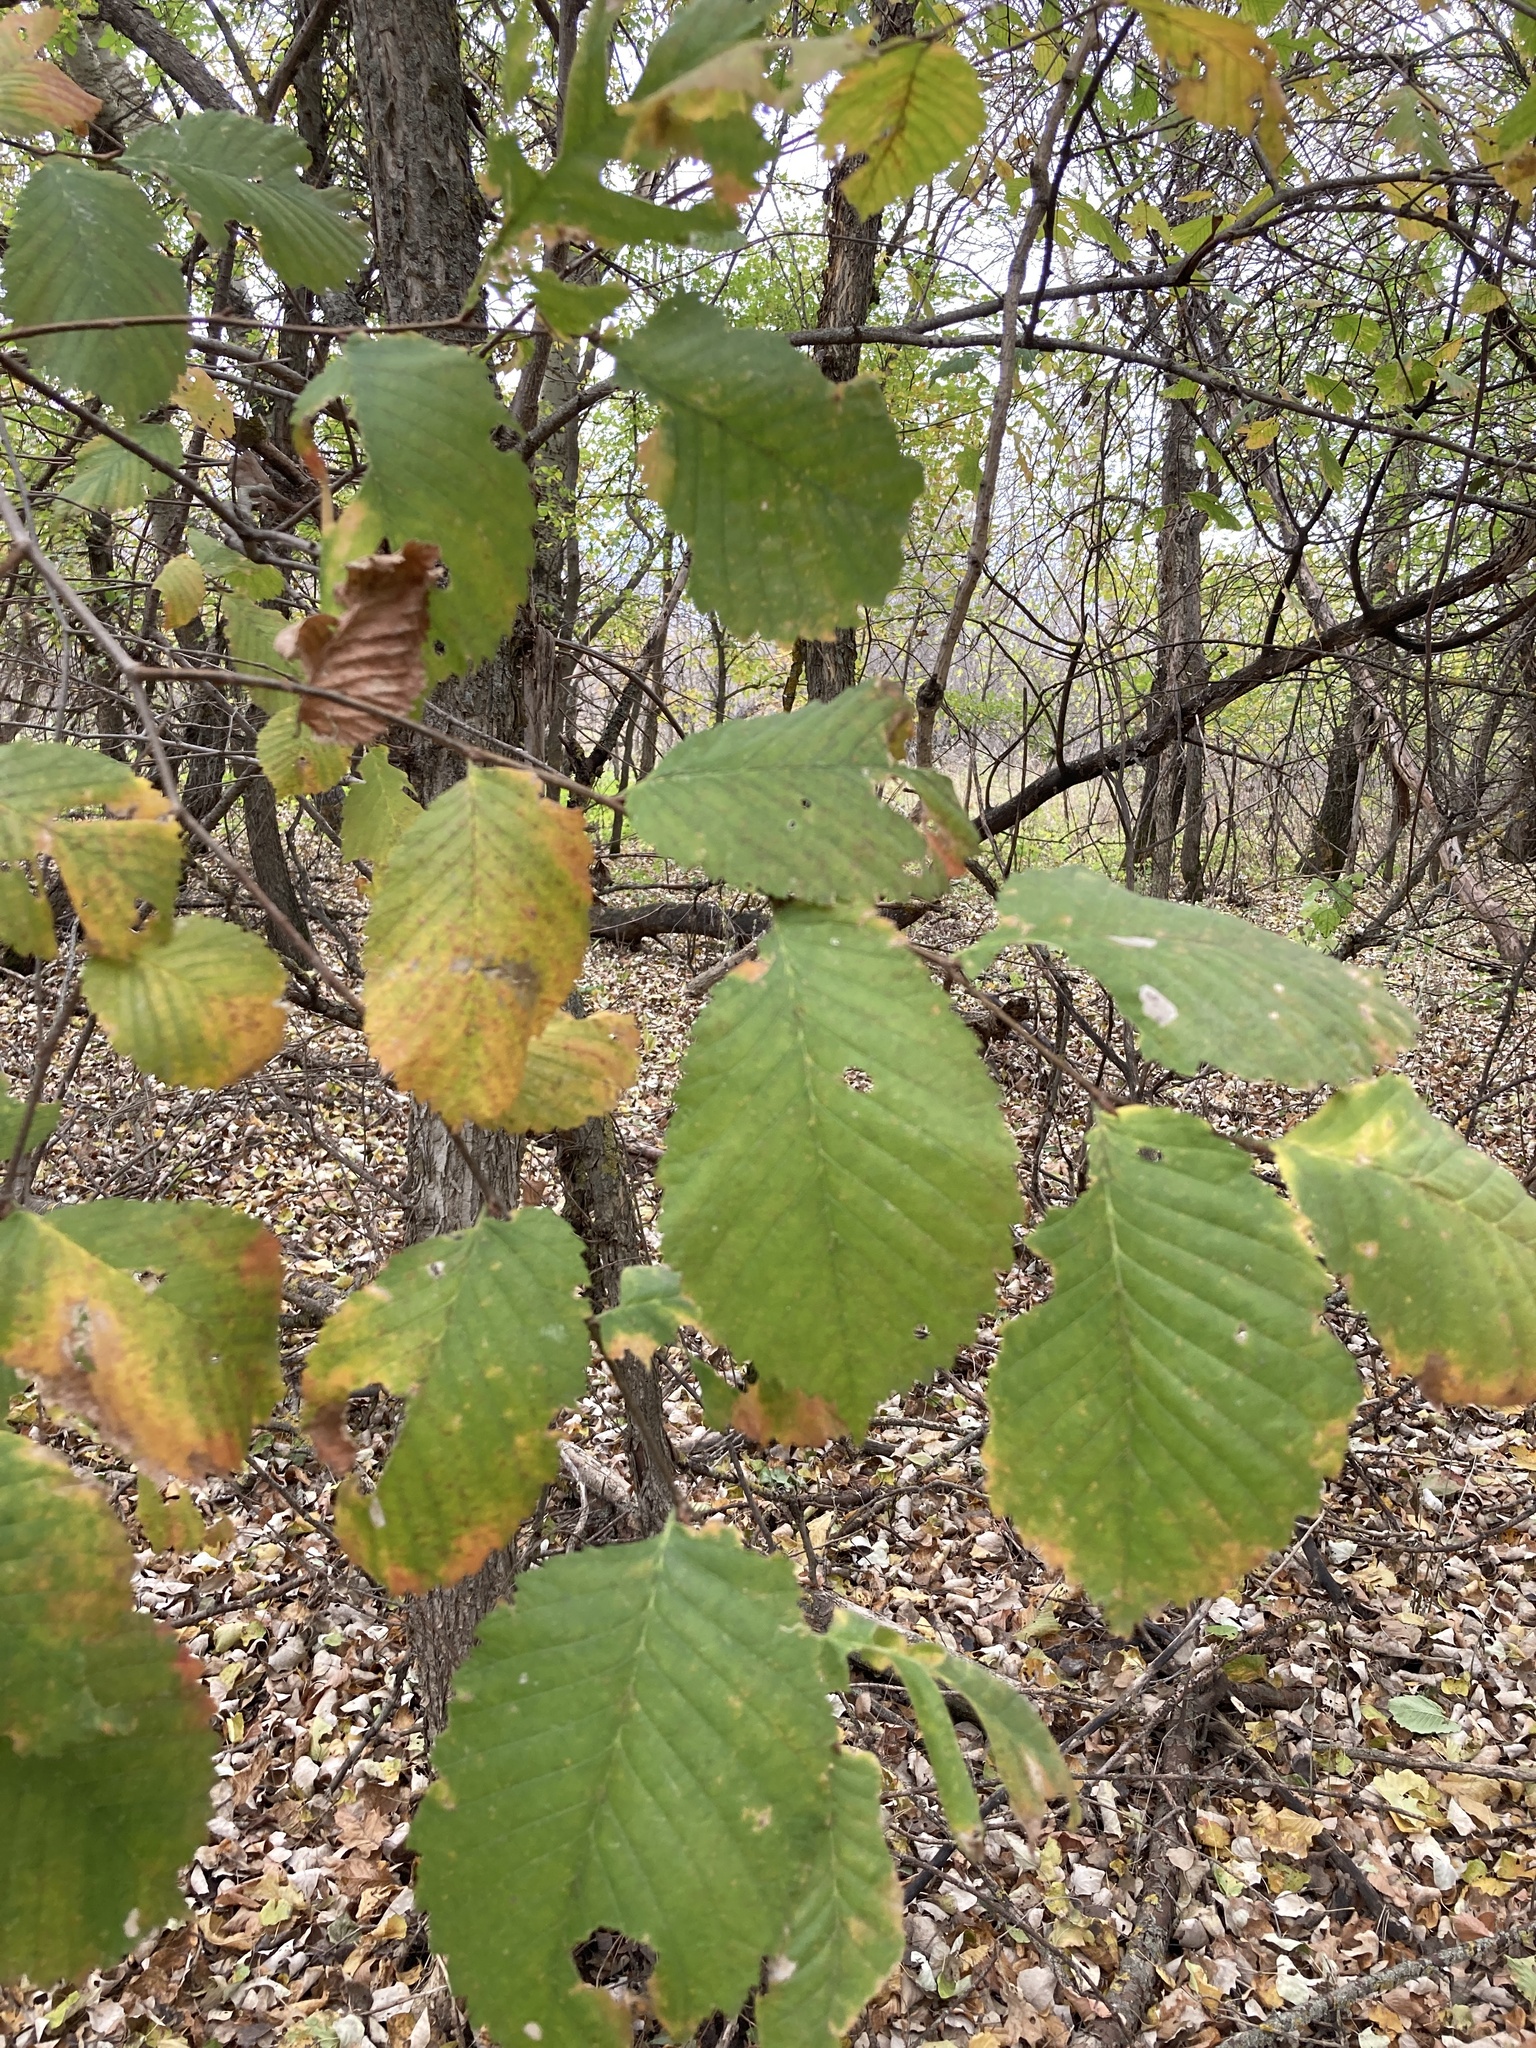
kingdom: Plantae
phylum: Tracheophyta
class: Magnoliopsida
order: Rosales
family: Ulmaceae
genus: Ulmus
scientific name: Ulmus laevis
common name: European white-elm
